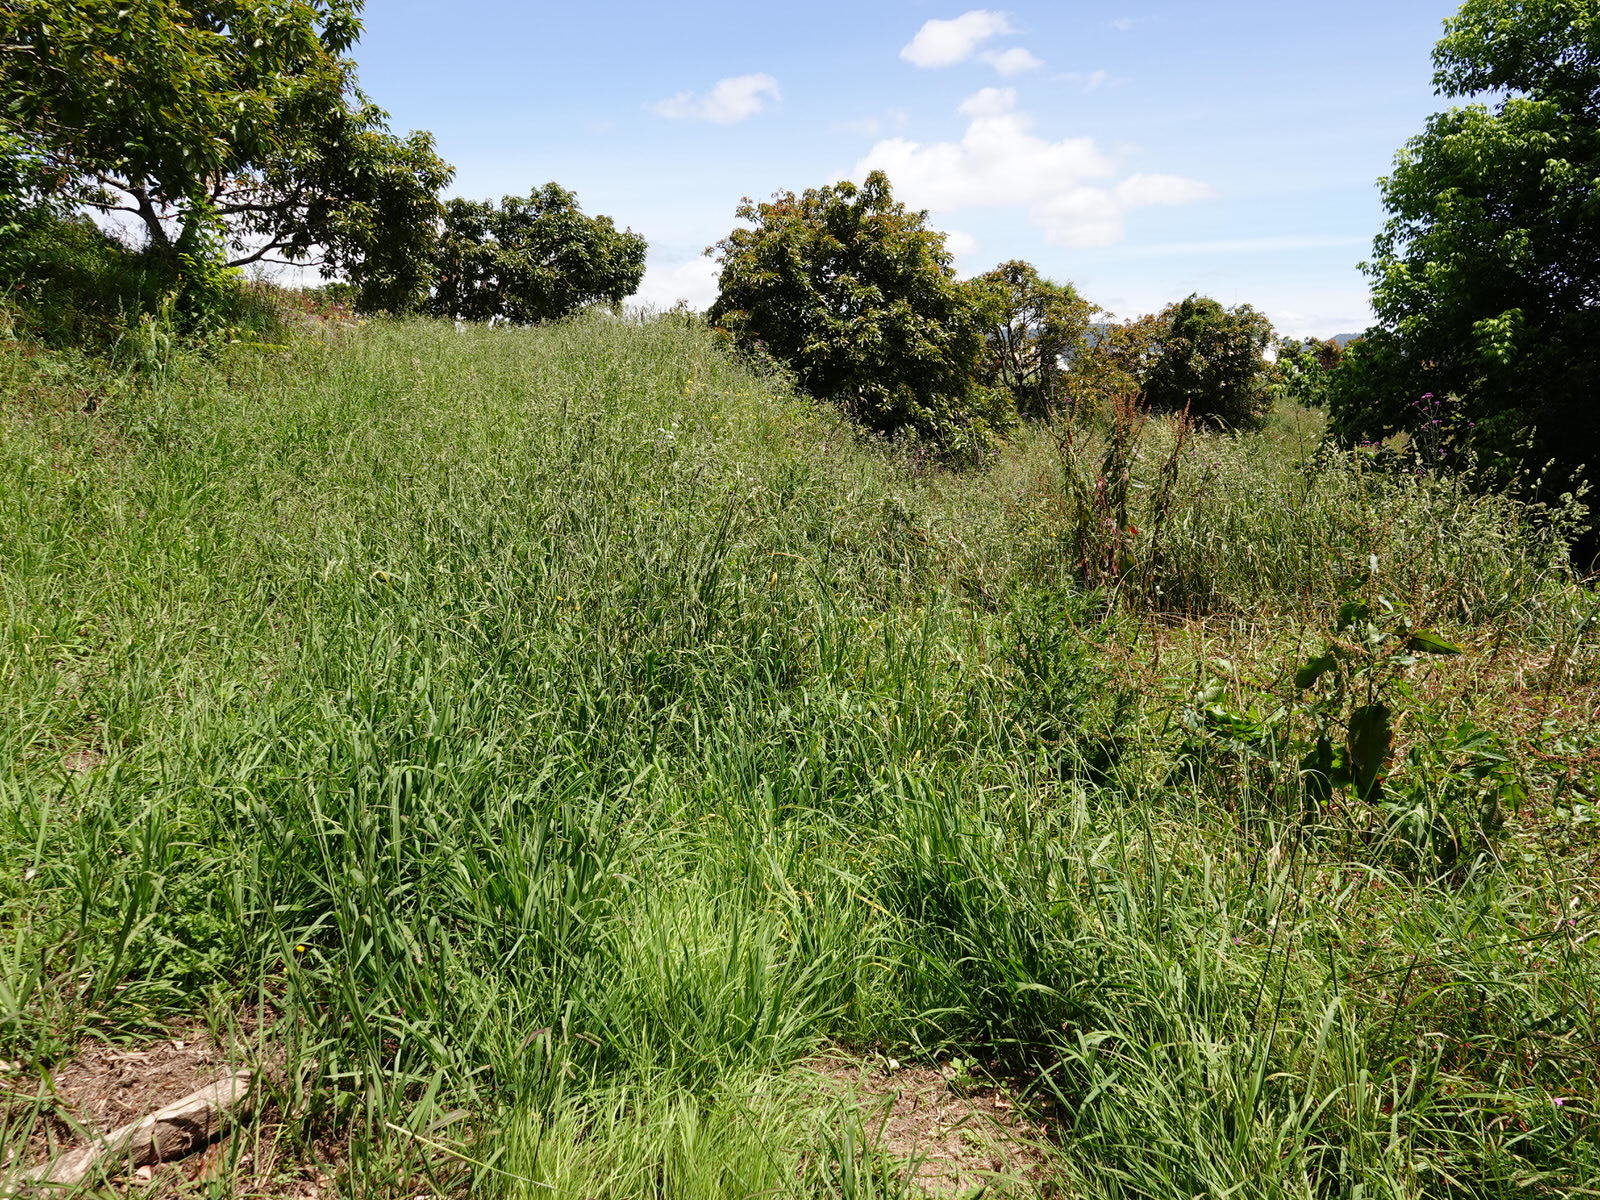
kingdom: Plantae
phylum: Tracheophyta
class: Liliopsida
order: Poales
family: Poaceae
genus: Paspalum
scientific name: Paspalum dilatatum
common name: Dallisgrass
